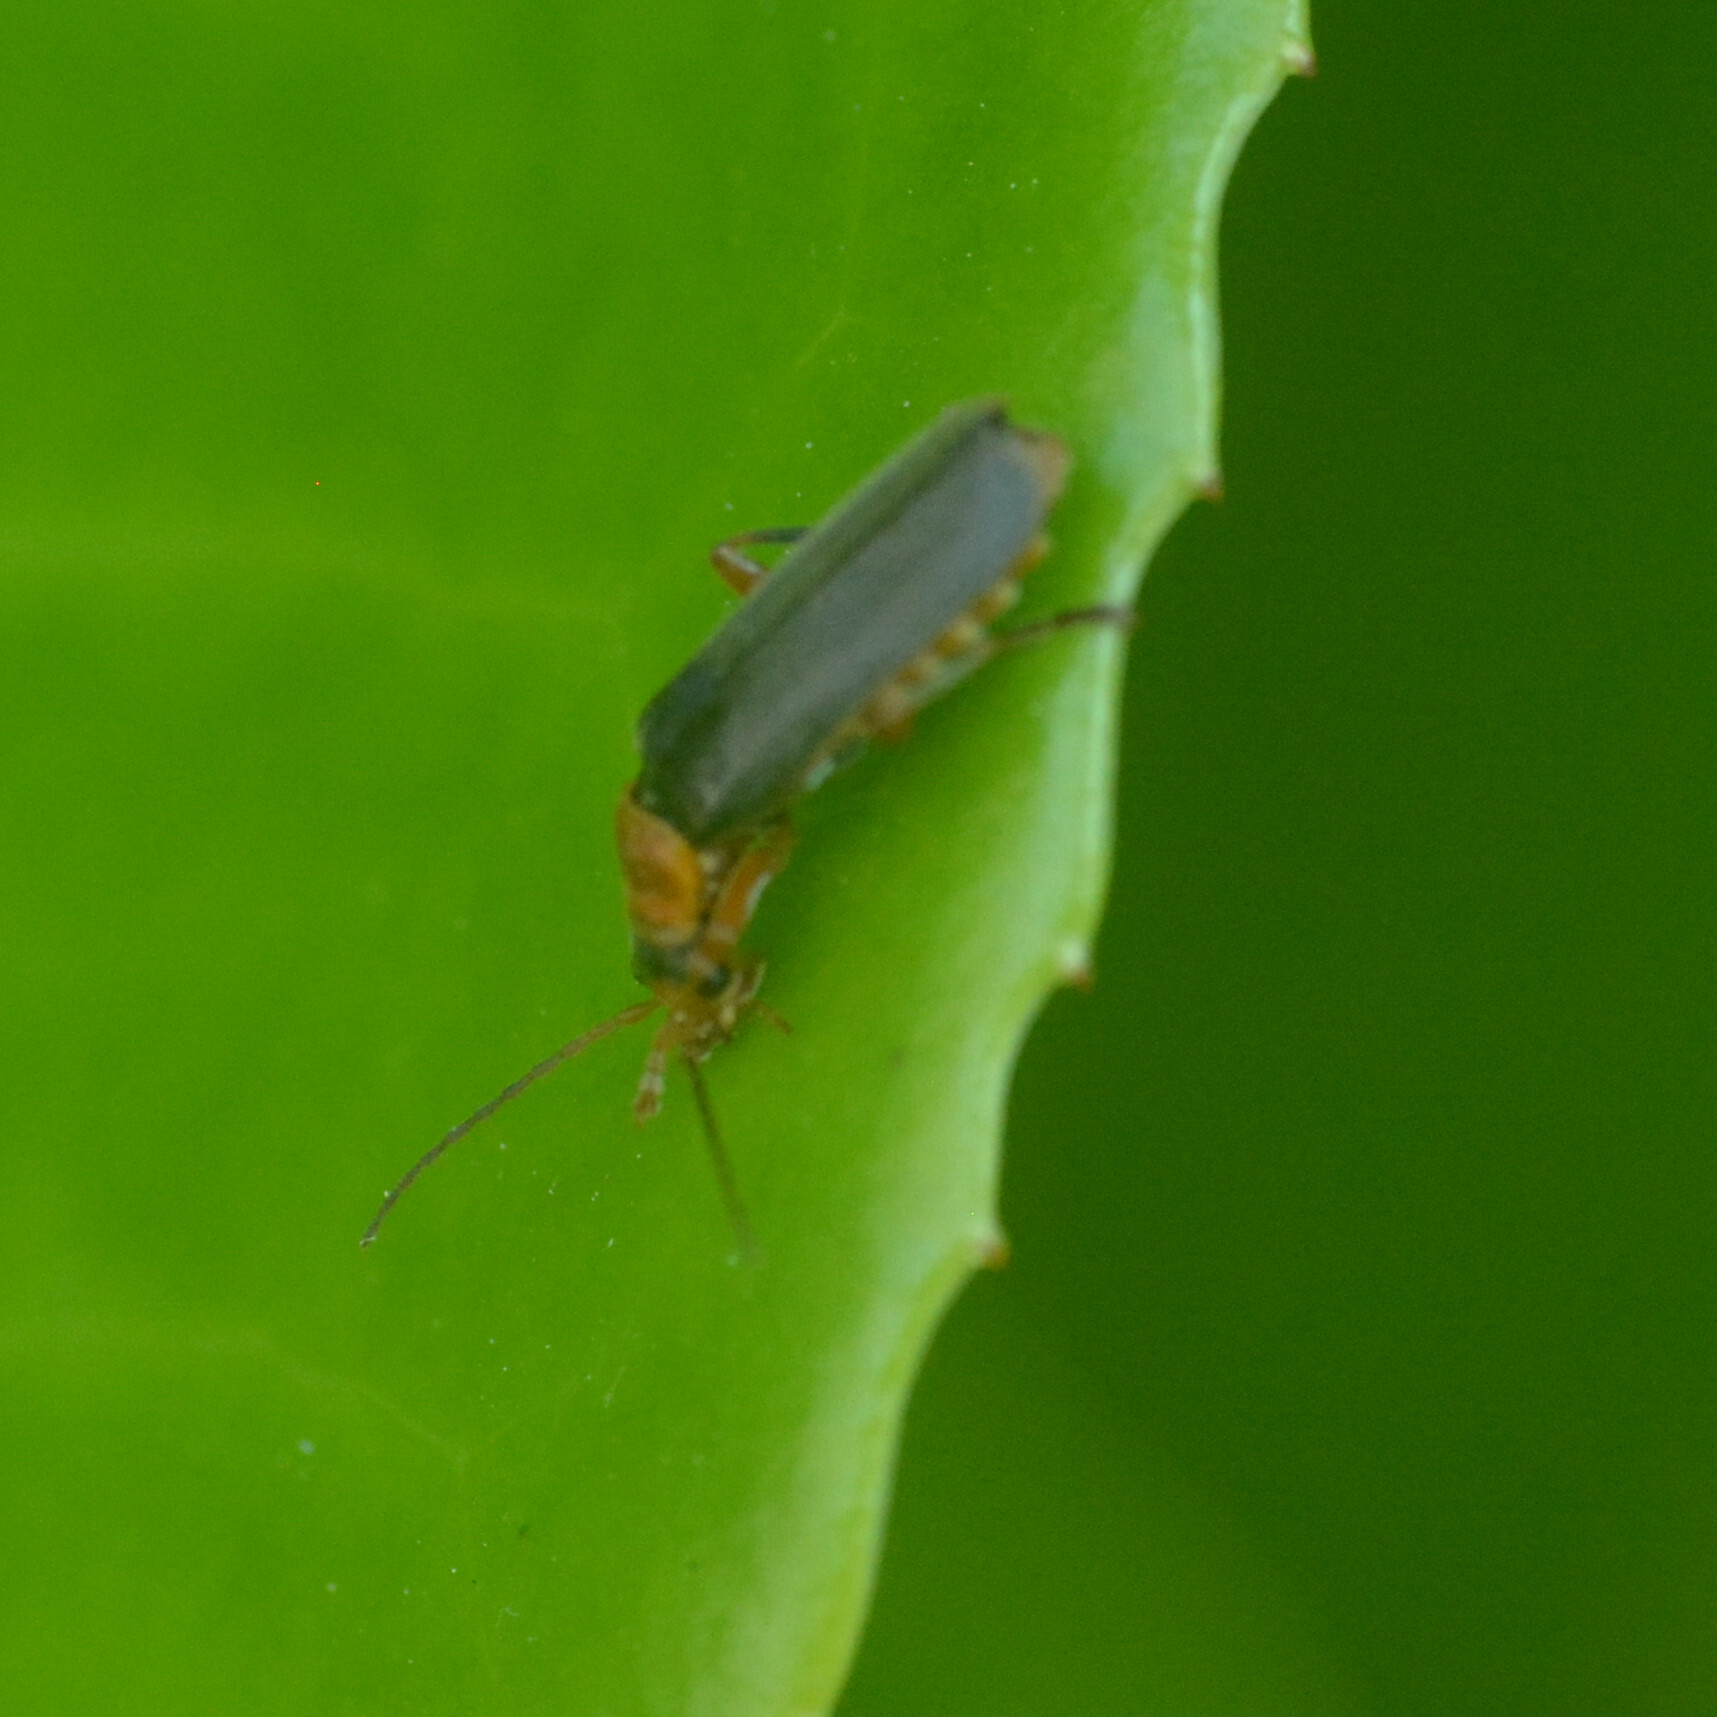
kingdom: Animalia
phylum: Arthropoda
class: Insecta
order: Coleoptera
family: Cantharidae
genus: Cantharis
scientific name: Cantharis lateralis
